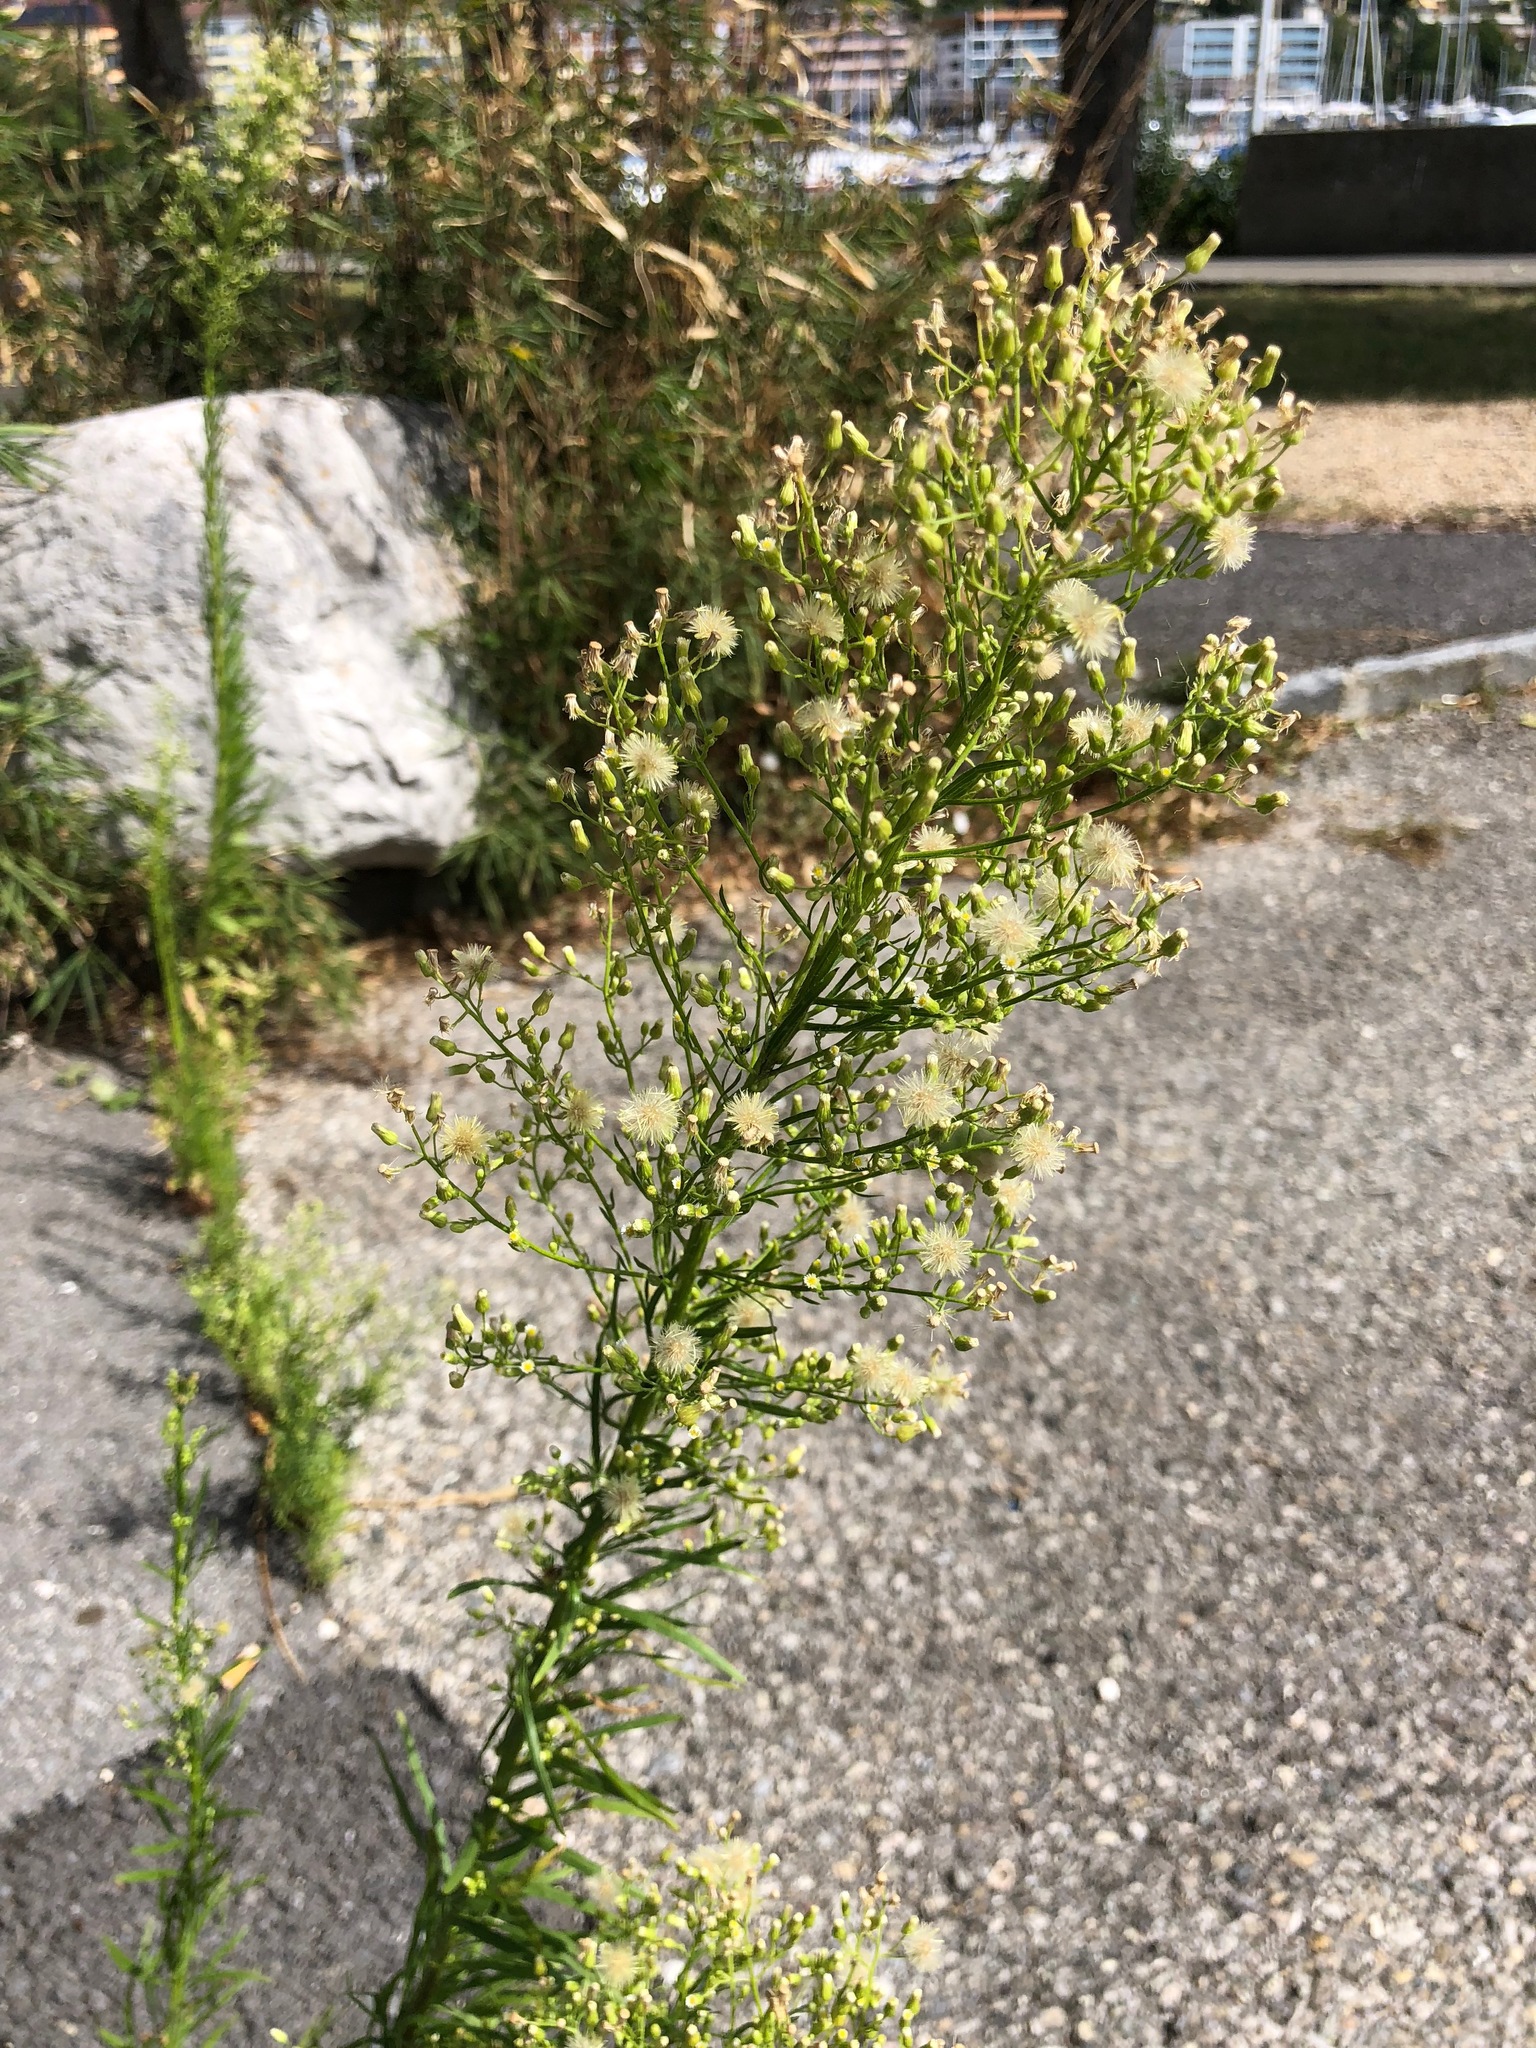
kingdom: Plantae
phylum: Tracheophyta
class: Magnoliopsida
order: Asterales
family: Asteraceae
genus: Erigeron
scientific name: Erigeron canadensis
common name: Canadian fleabane
